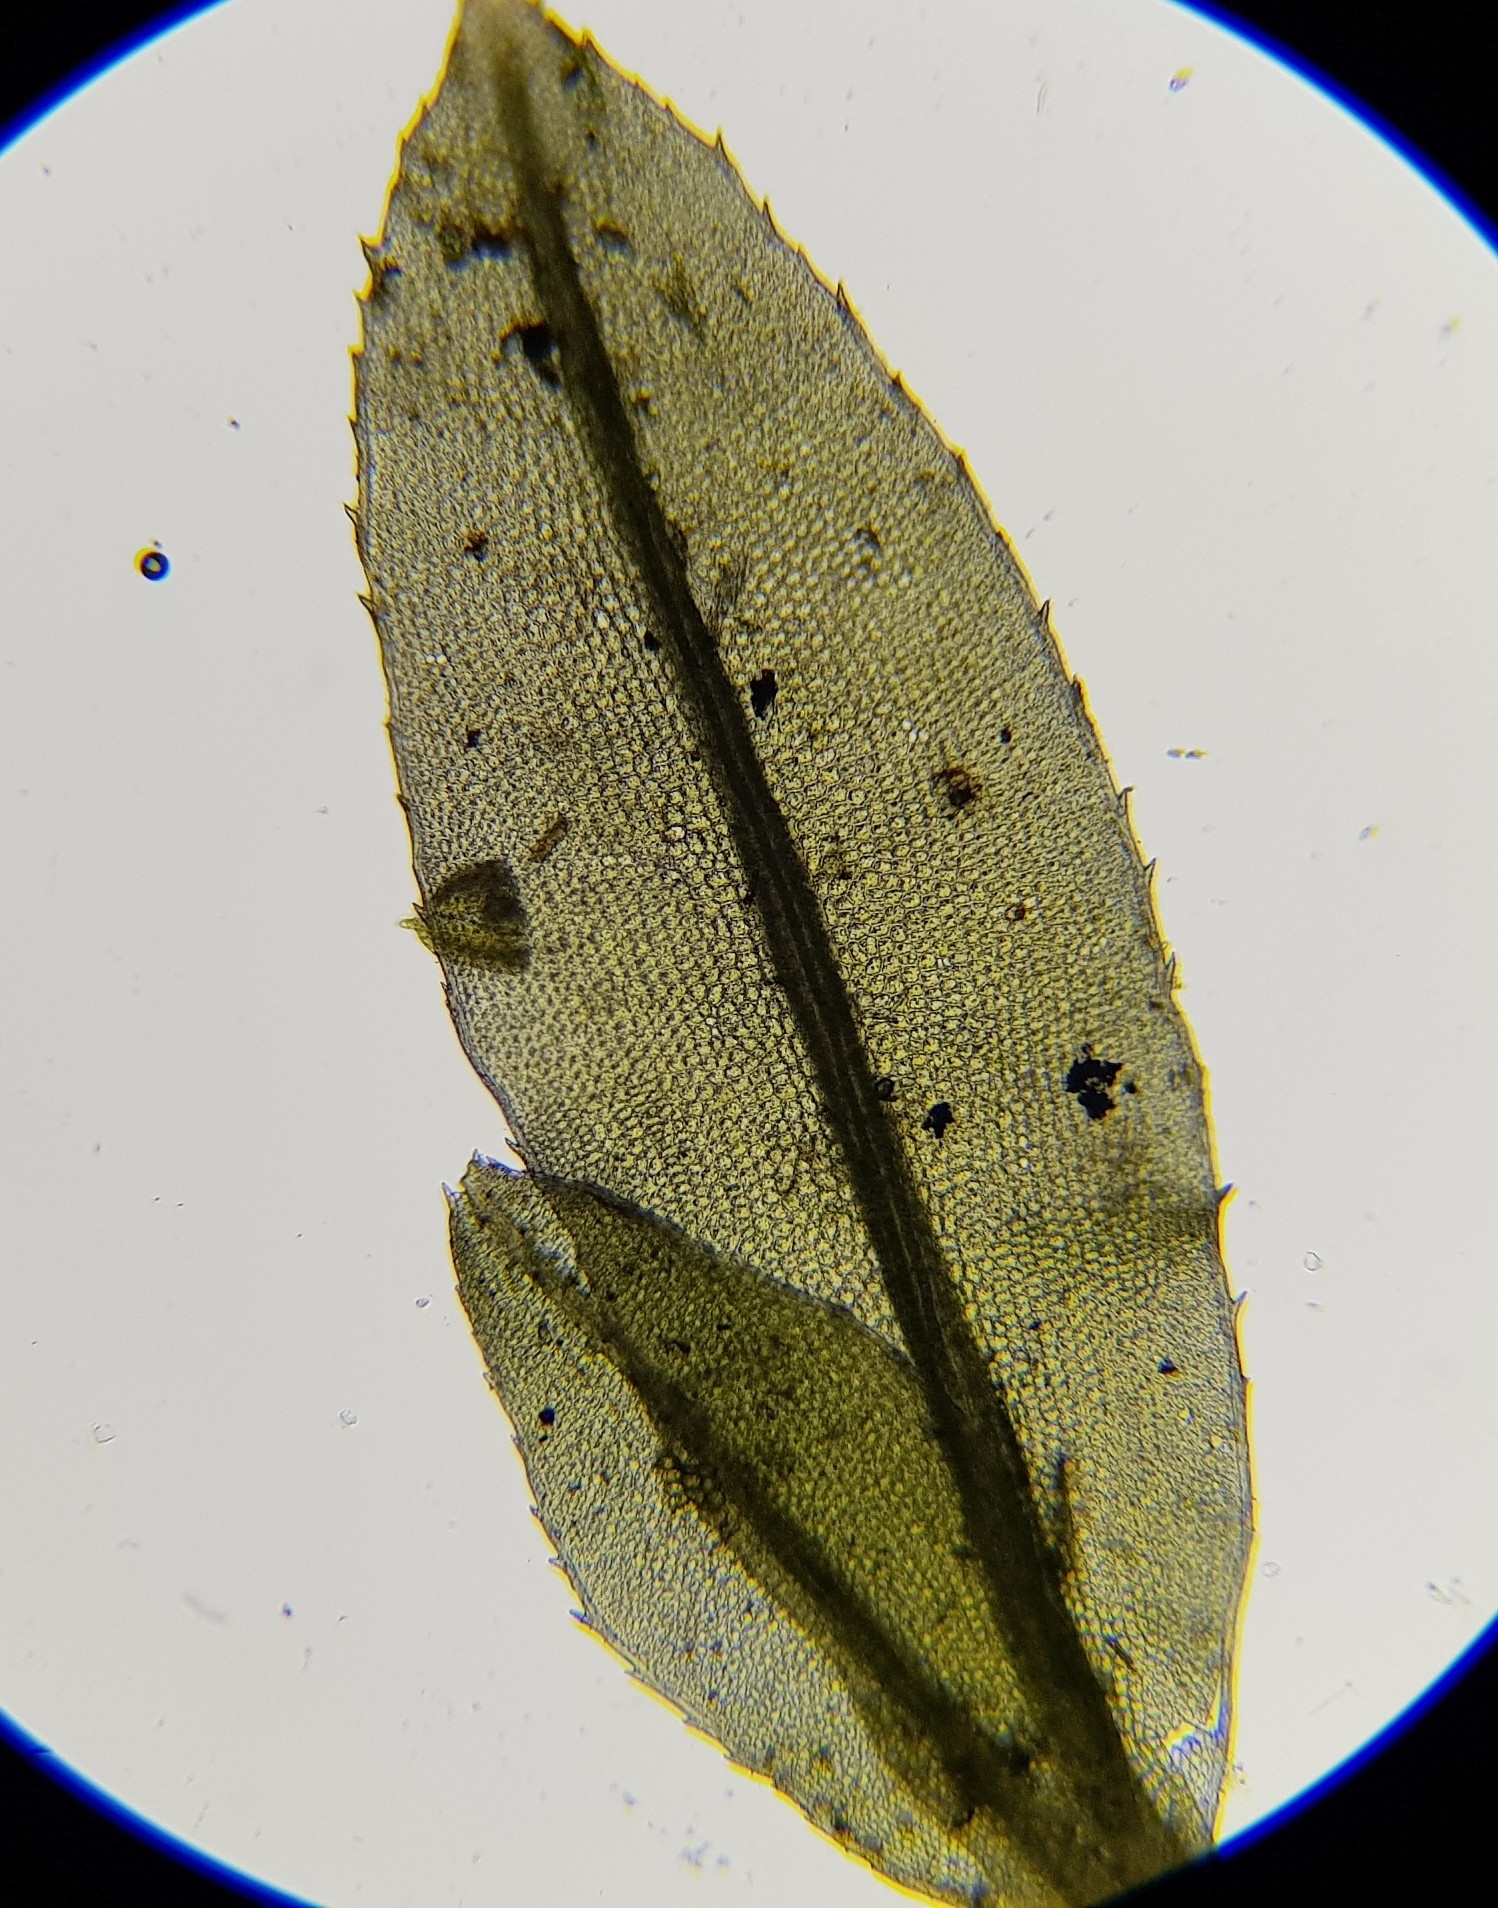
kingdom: Plantae
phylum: Bryophyta
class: Polytrichopsida
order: Polytrichales
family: Polytrichaceae
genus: Atrichum
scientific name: Atrichum crispum
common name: Fountain smoothcap
